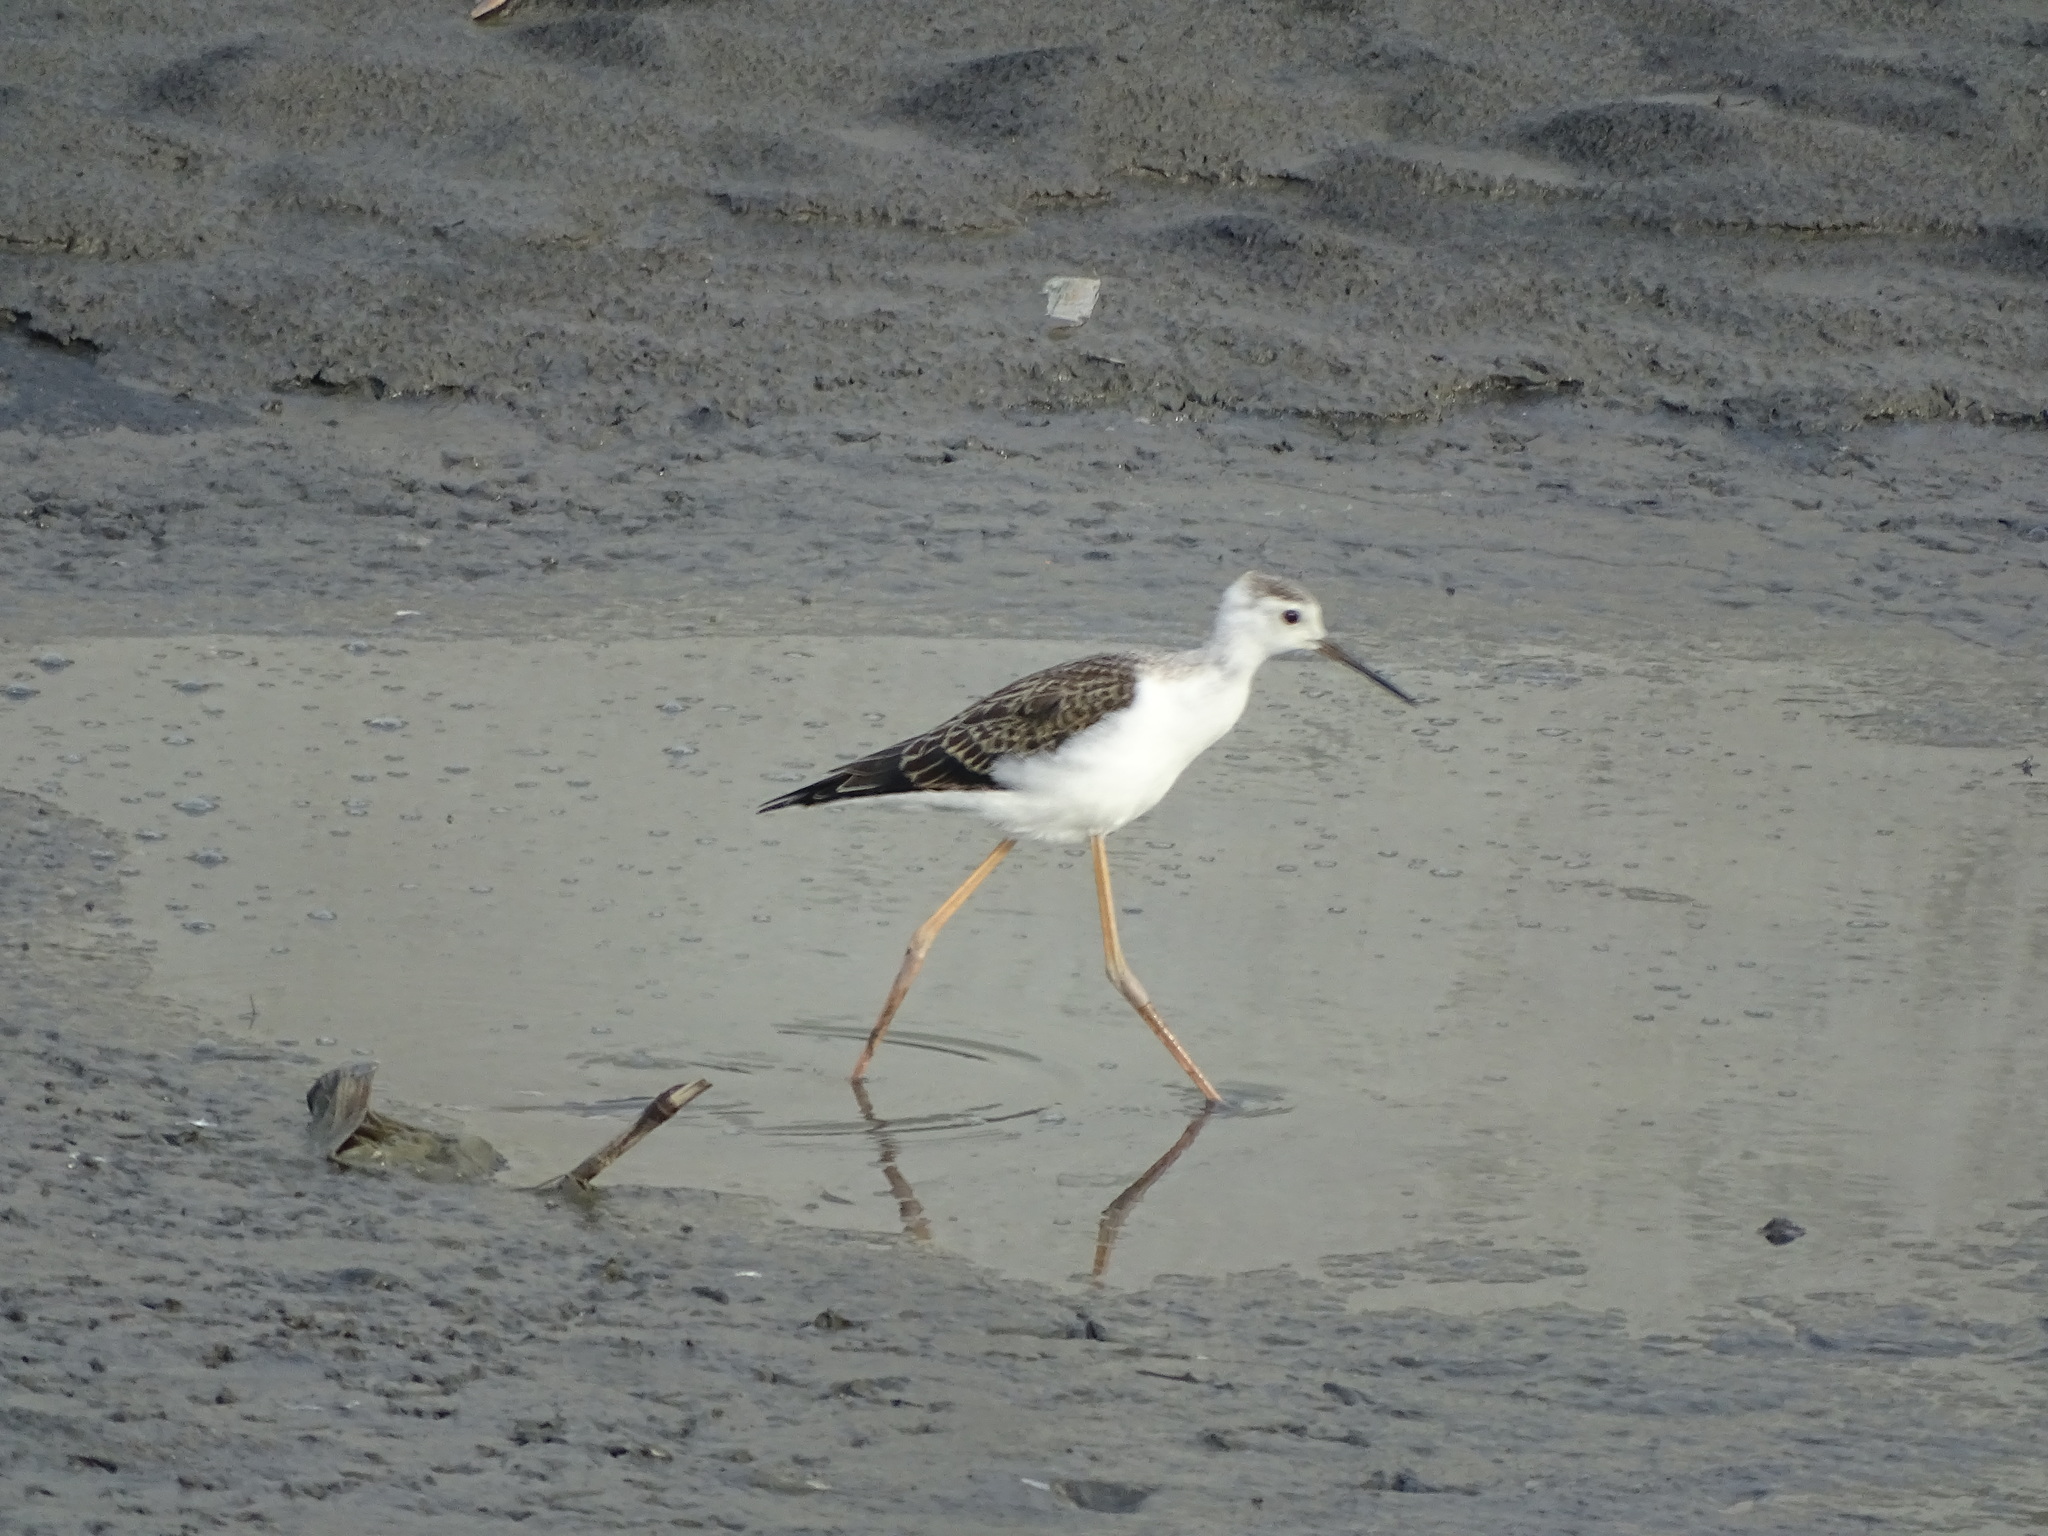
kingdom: Animalia
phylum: Chordata
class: Aves
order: Charadriiformes
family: Recurvirostridae
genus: Himantopus
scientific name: Himantopus himantopus
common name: Black-winged stilt
